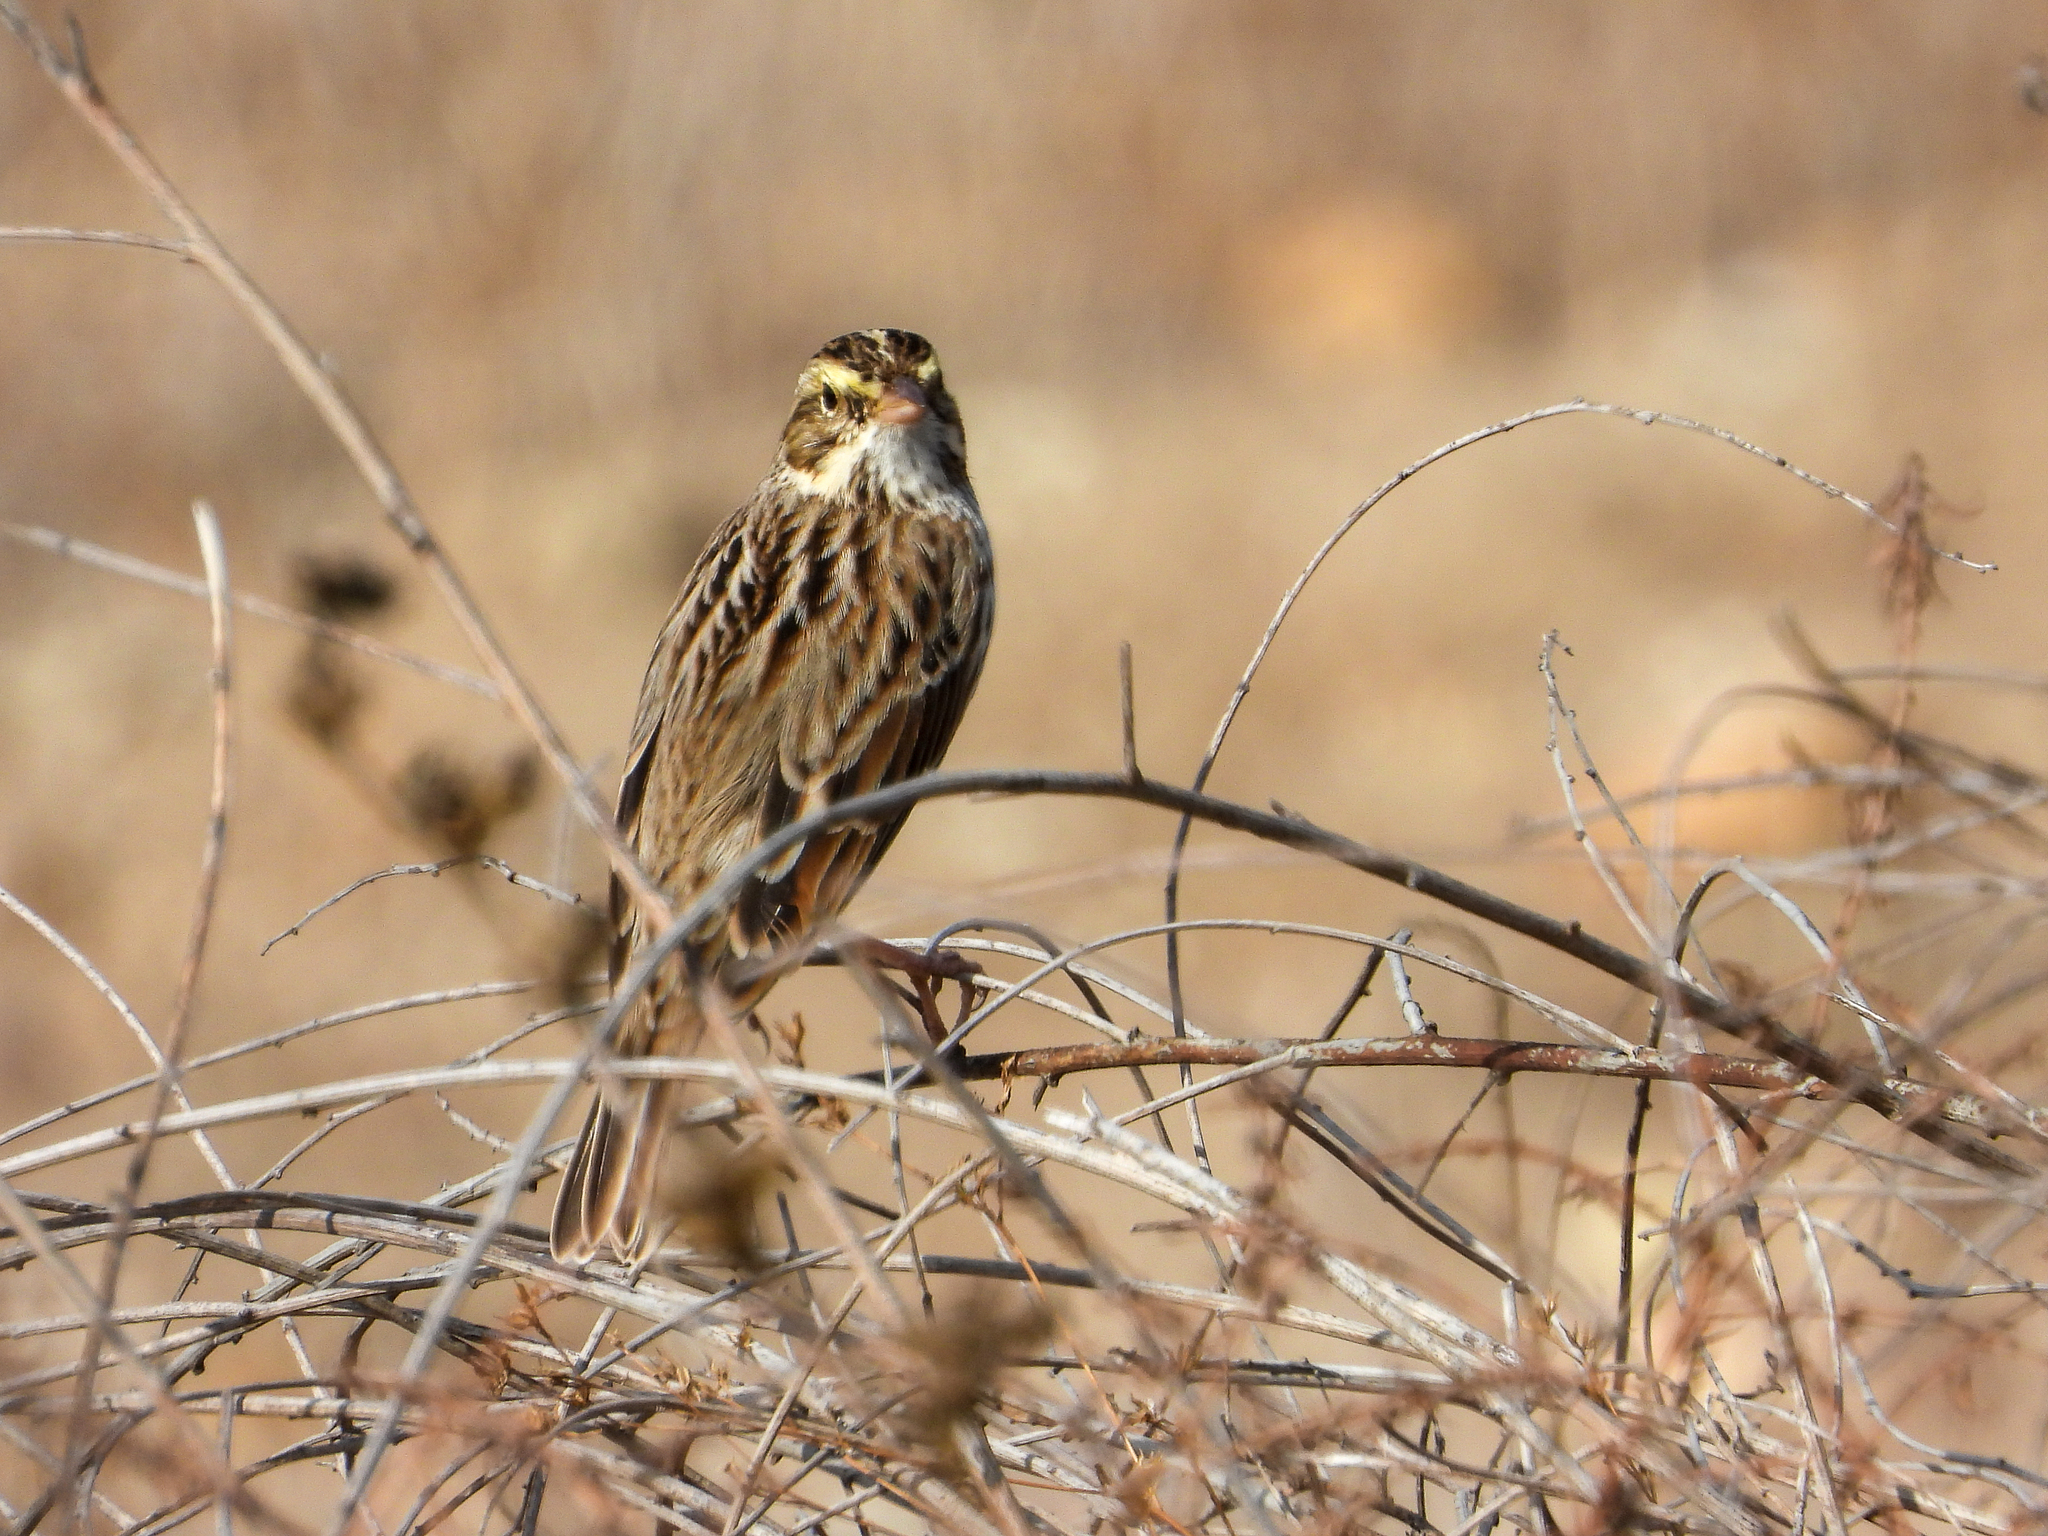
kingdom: Animalia
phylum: Chordata
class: Aves
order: Passeriformes
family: Passerellidae
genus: Passerculus
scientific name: Passerculus sandwichensis
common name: Savannah sparrow
